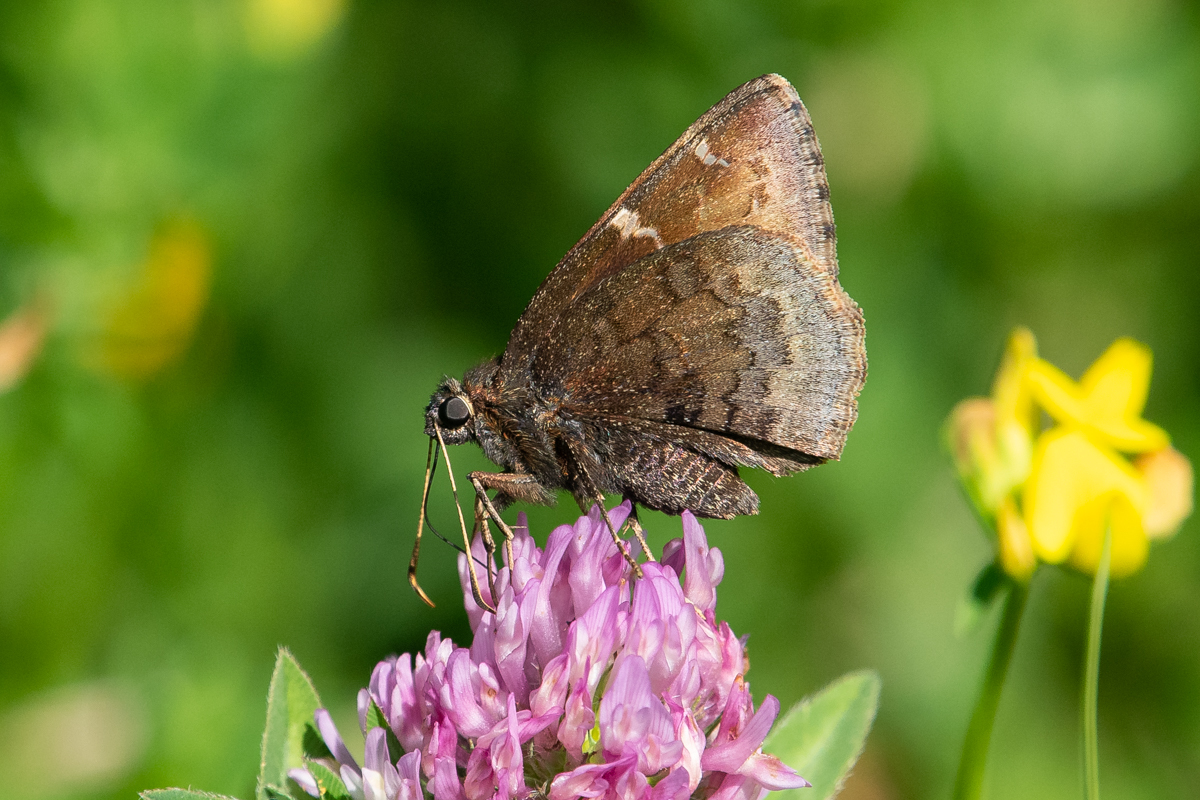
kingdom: Animalia
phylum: Arthropoda
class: Insecta
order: Lepidoptera
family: Hesperiidae
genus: Thorybes
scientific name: Thorybes pylades
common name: Northern cloudywing
